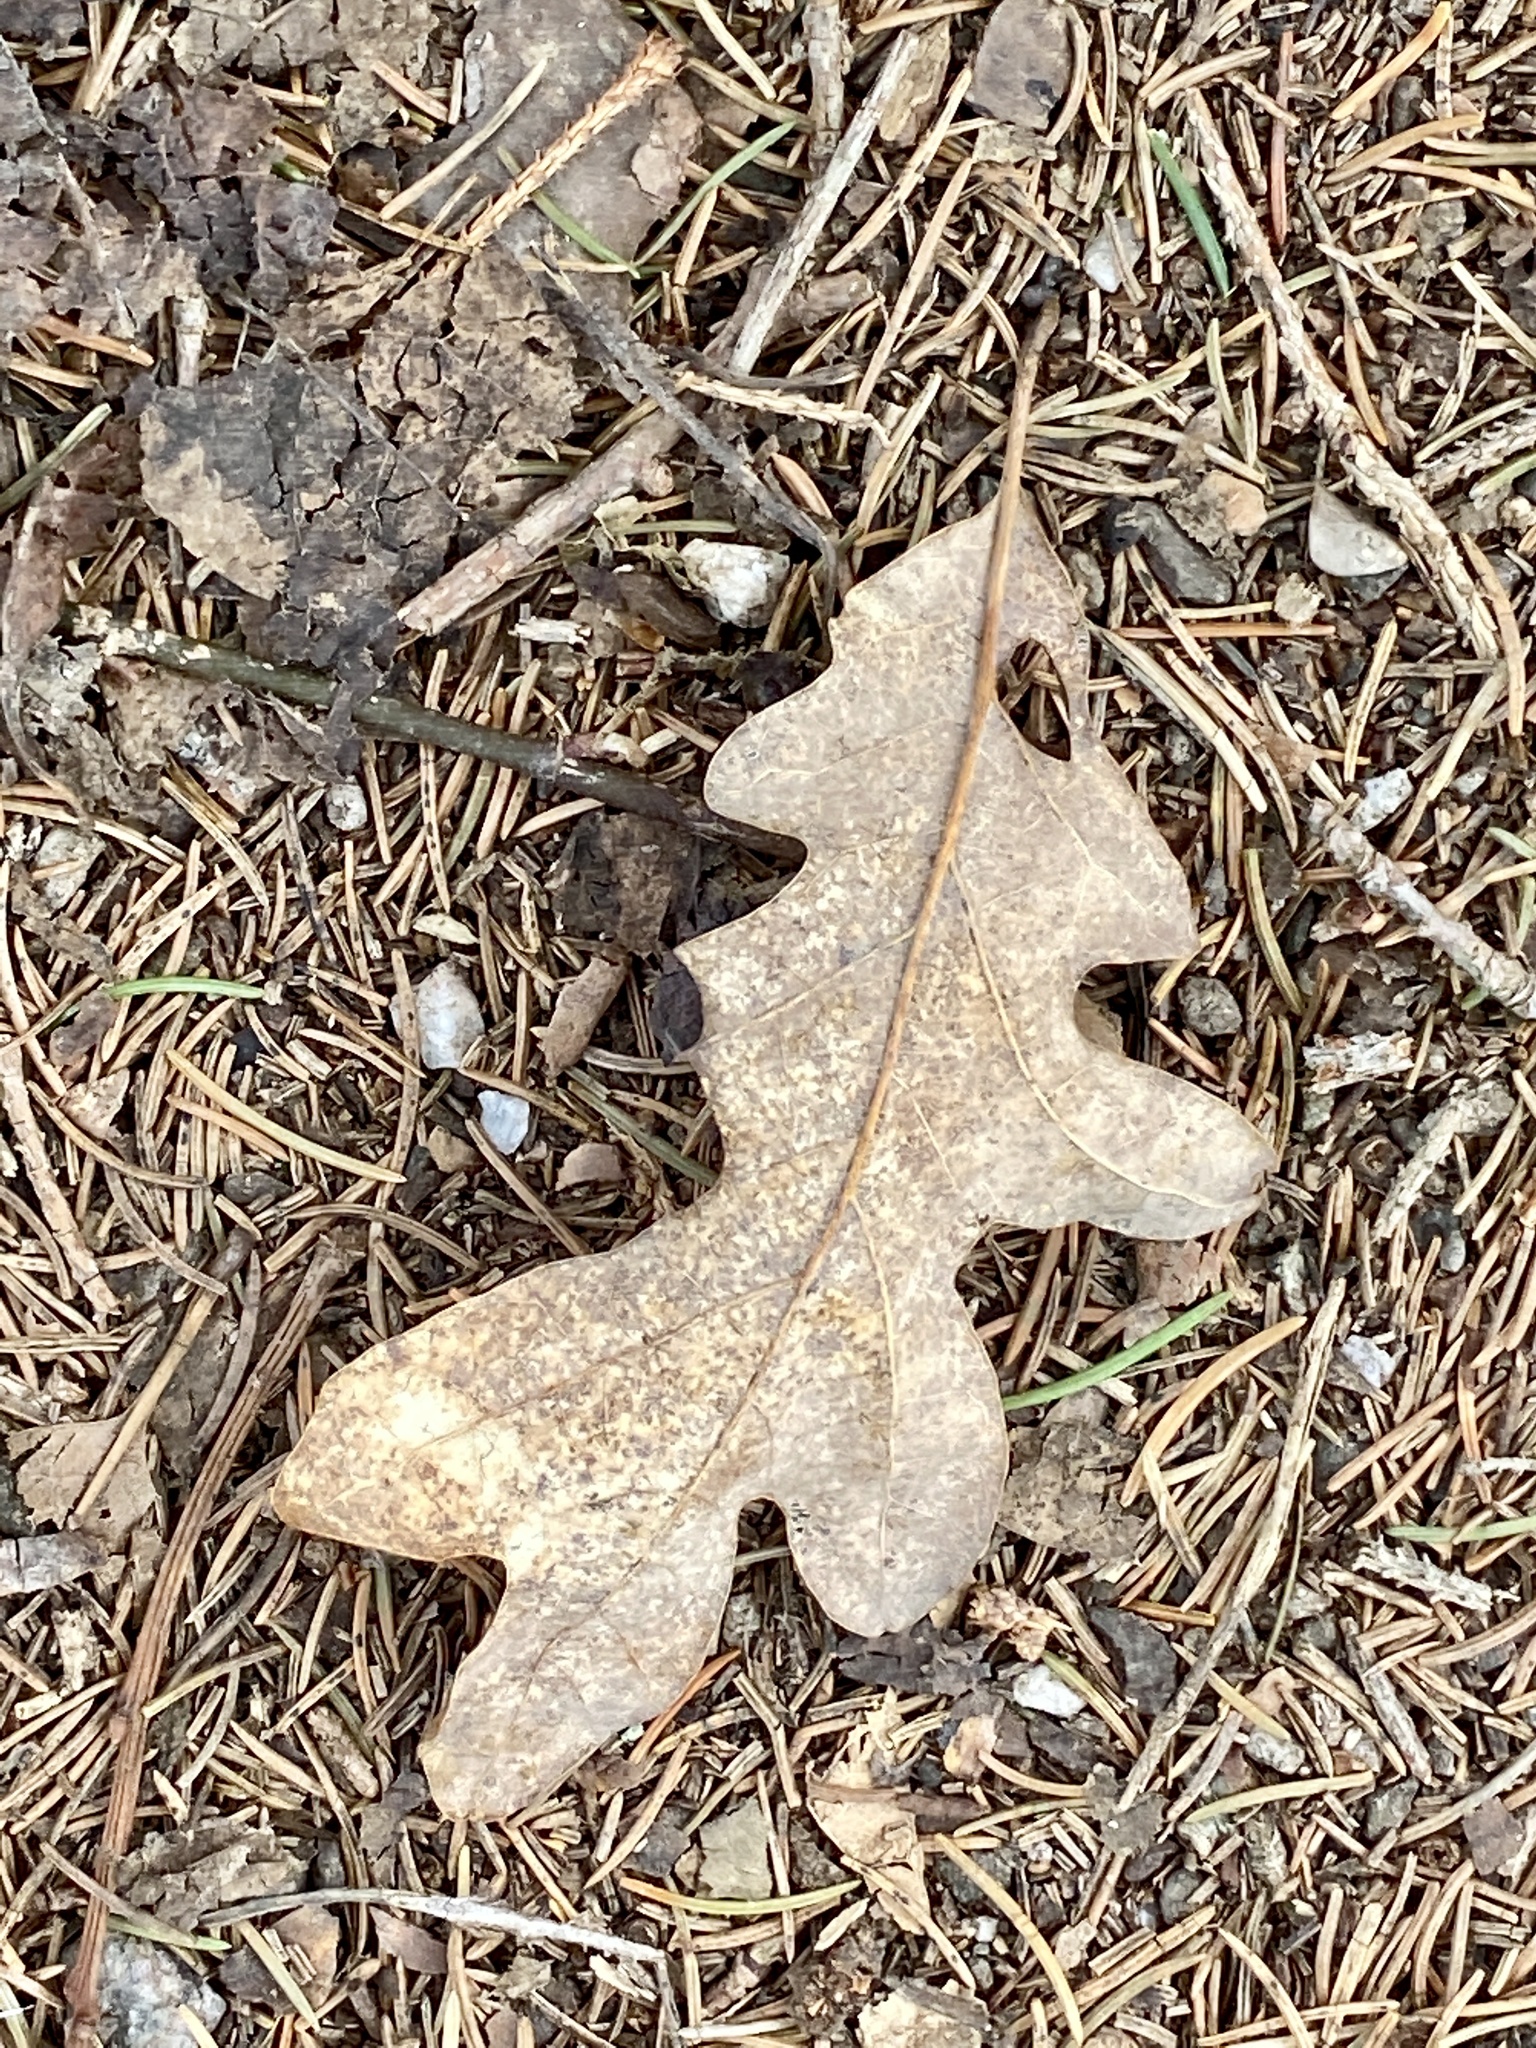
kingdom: Plantae
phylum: Tracheophyta
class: Magnoliopsida
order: Fagales
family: Fagaceae
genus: Quercus
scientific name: Quercus alba
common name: White oak
